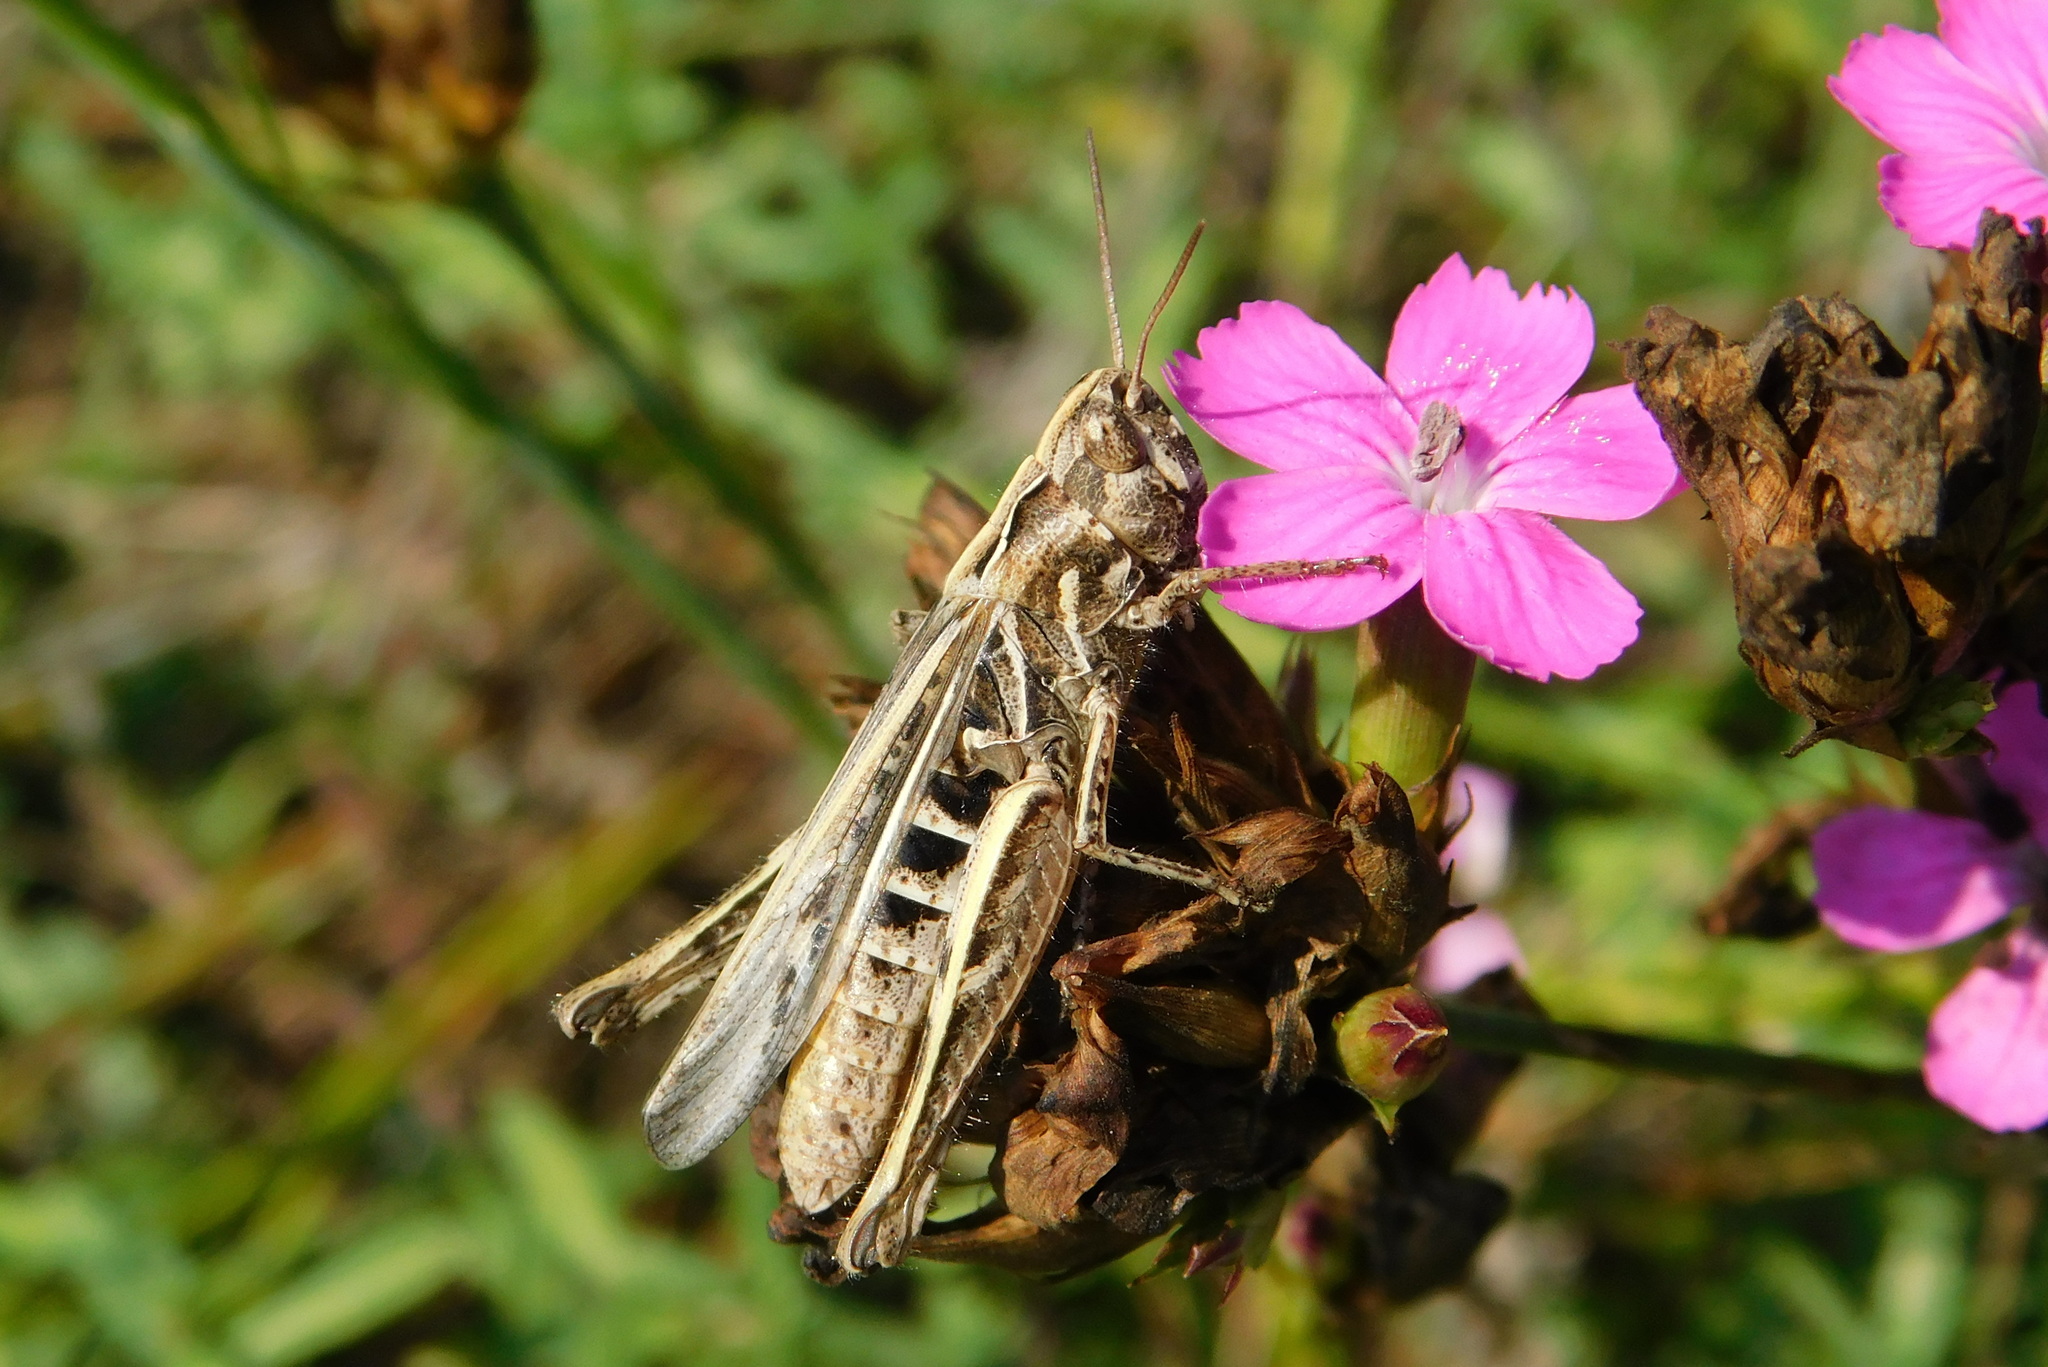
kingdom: Animalia
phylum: Arthropoda
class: Insecta
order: Orthoptera
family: Acrididae
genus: Chorthippus
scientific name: Chorthippus mollis
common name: Lesser field grasshopper
